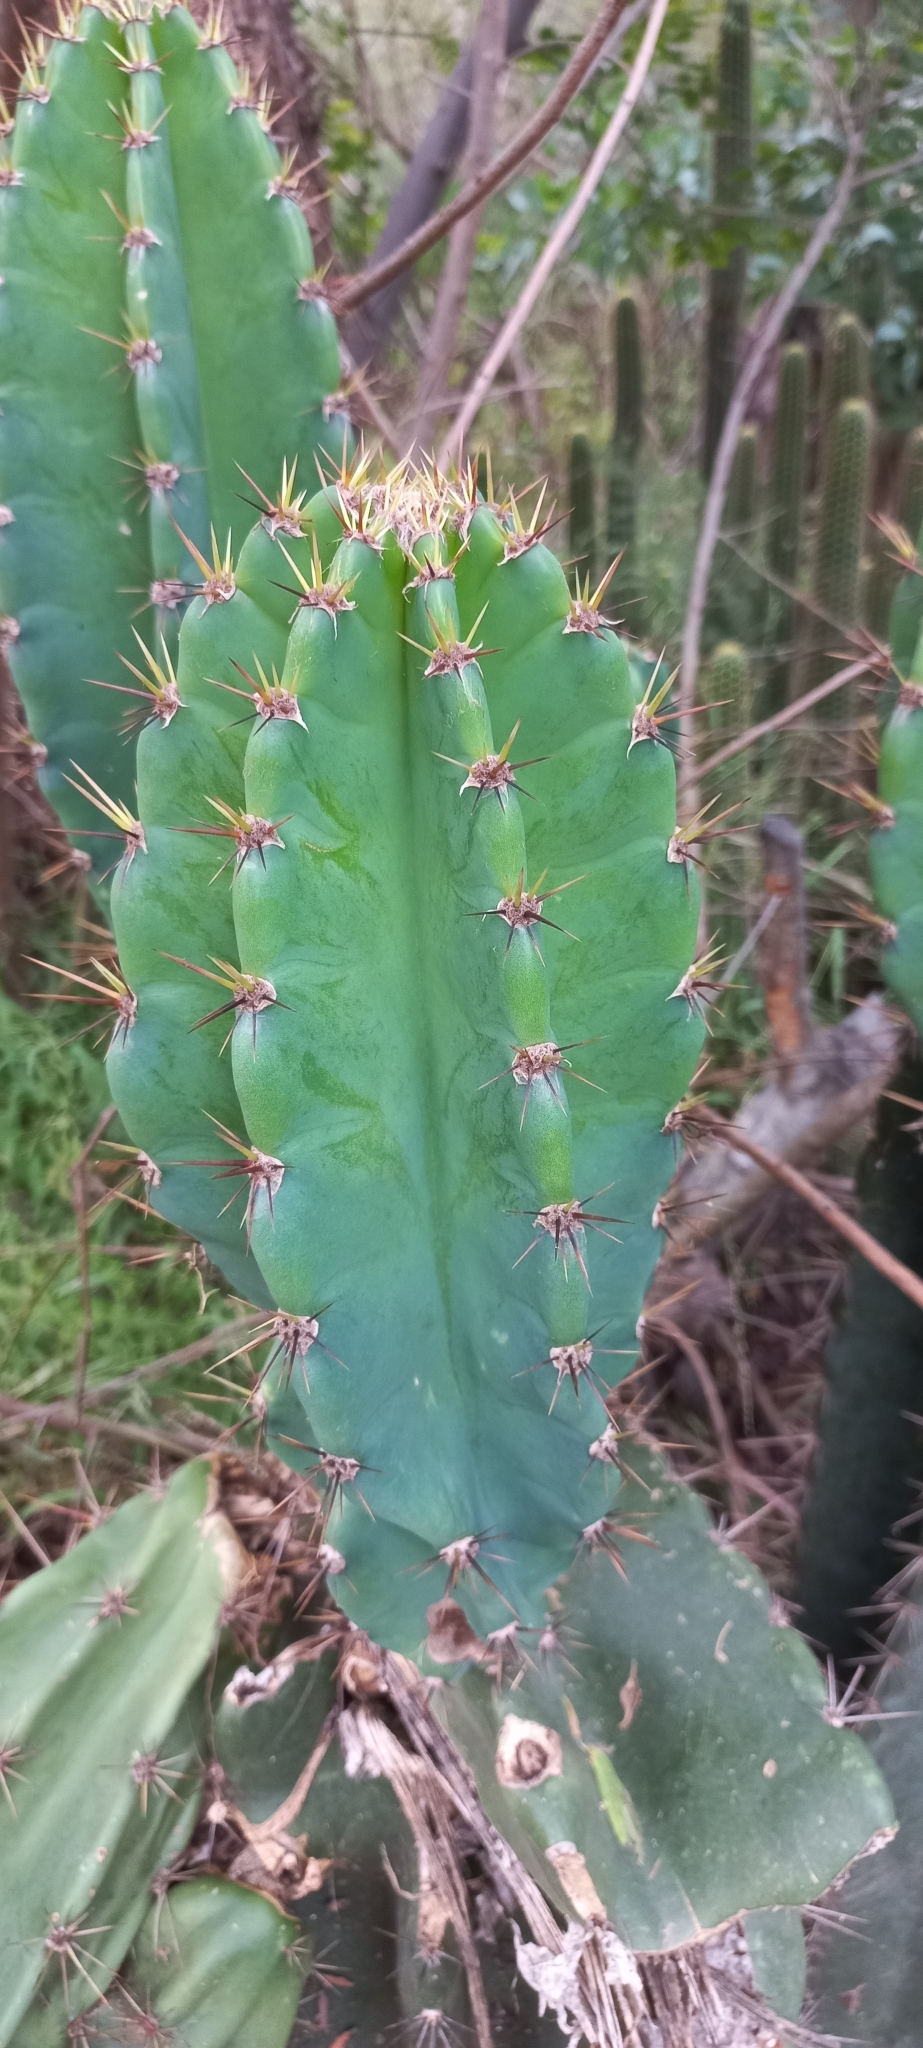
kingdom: Plantae
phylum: Tracheophyta
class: Magnoliopsida
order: Caryophyllales
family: Cactaceae
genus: Cereus
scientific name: Cereus jamacaru
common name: Queen-of-the-night
